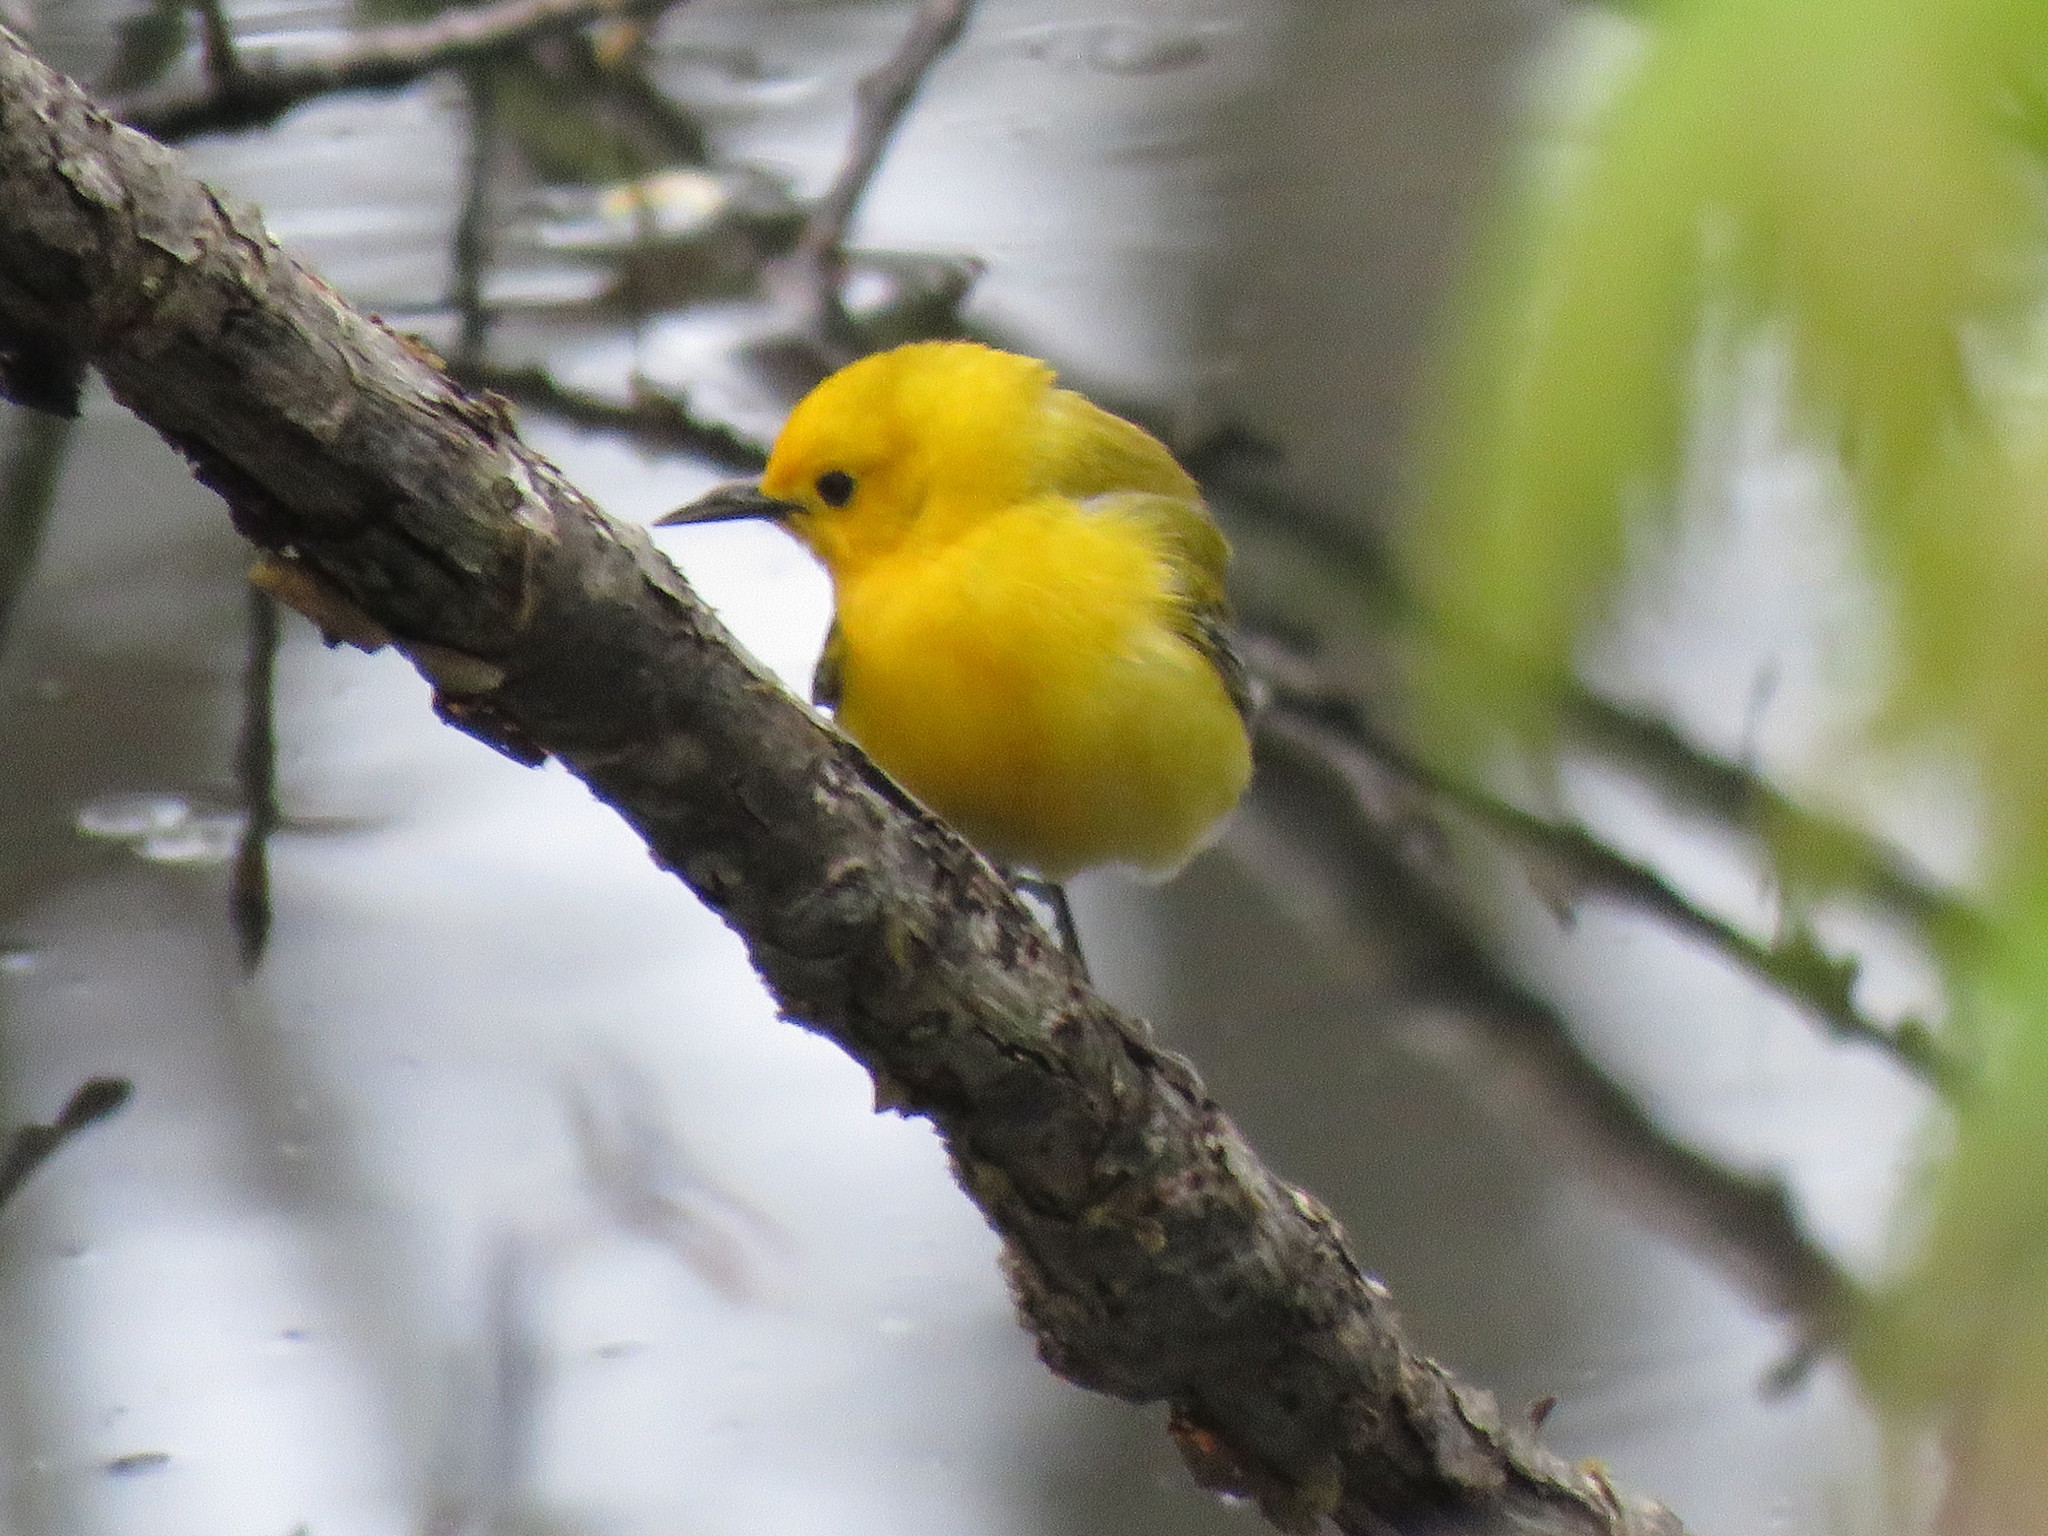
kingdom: Animalia
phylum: Chordata
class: Aves
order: Passeriformes
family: Parulidae
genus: Protonotaria
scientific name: Protonotaria citrea
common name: Prothonotary warbler
